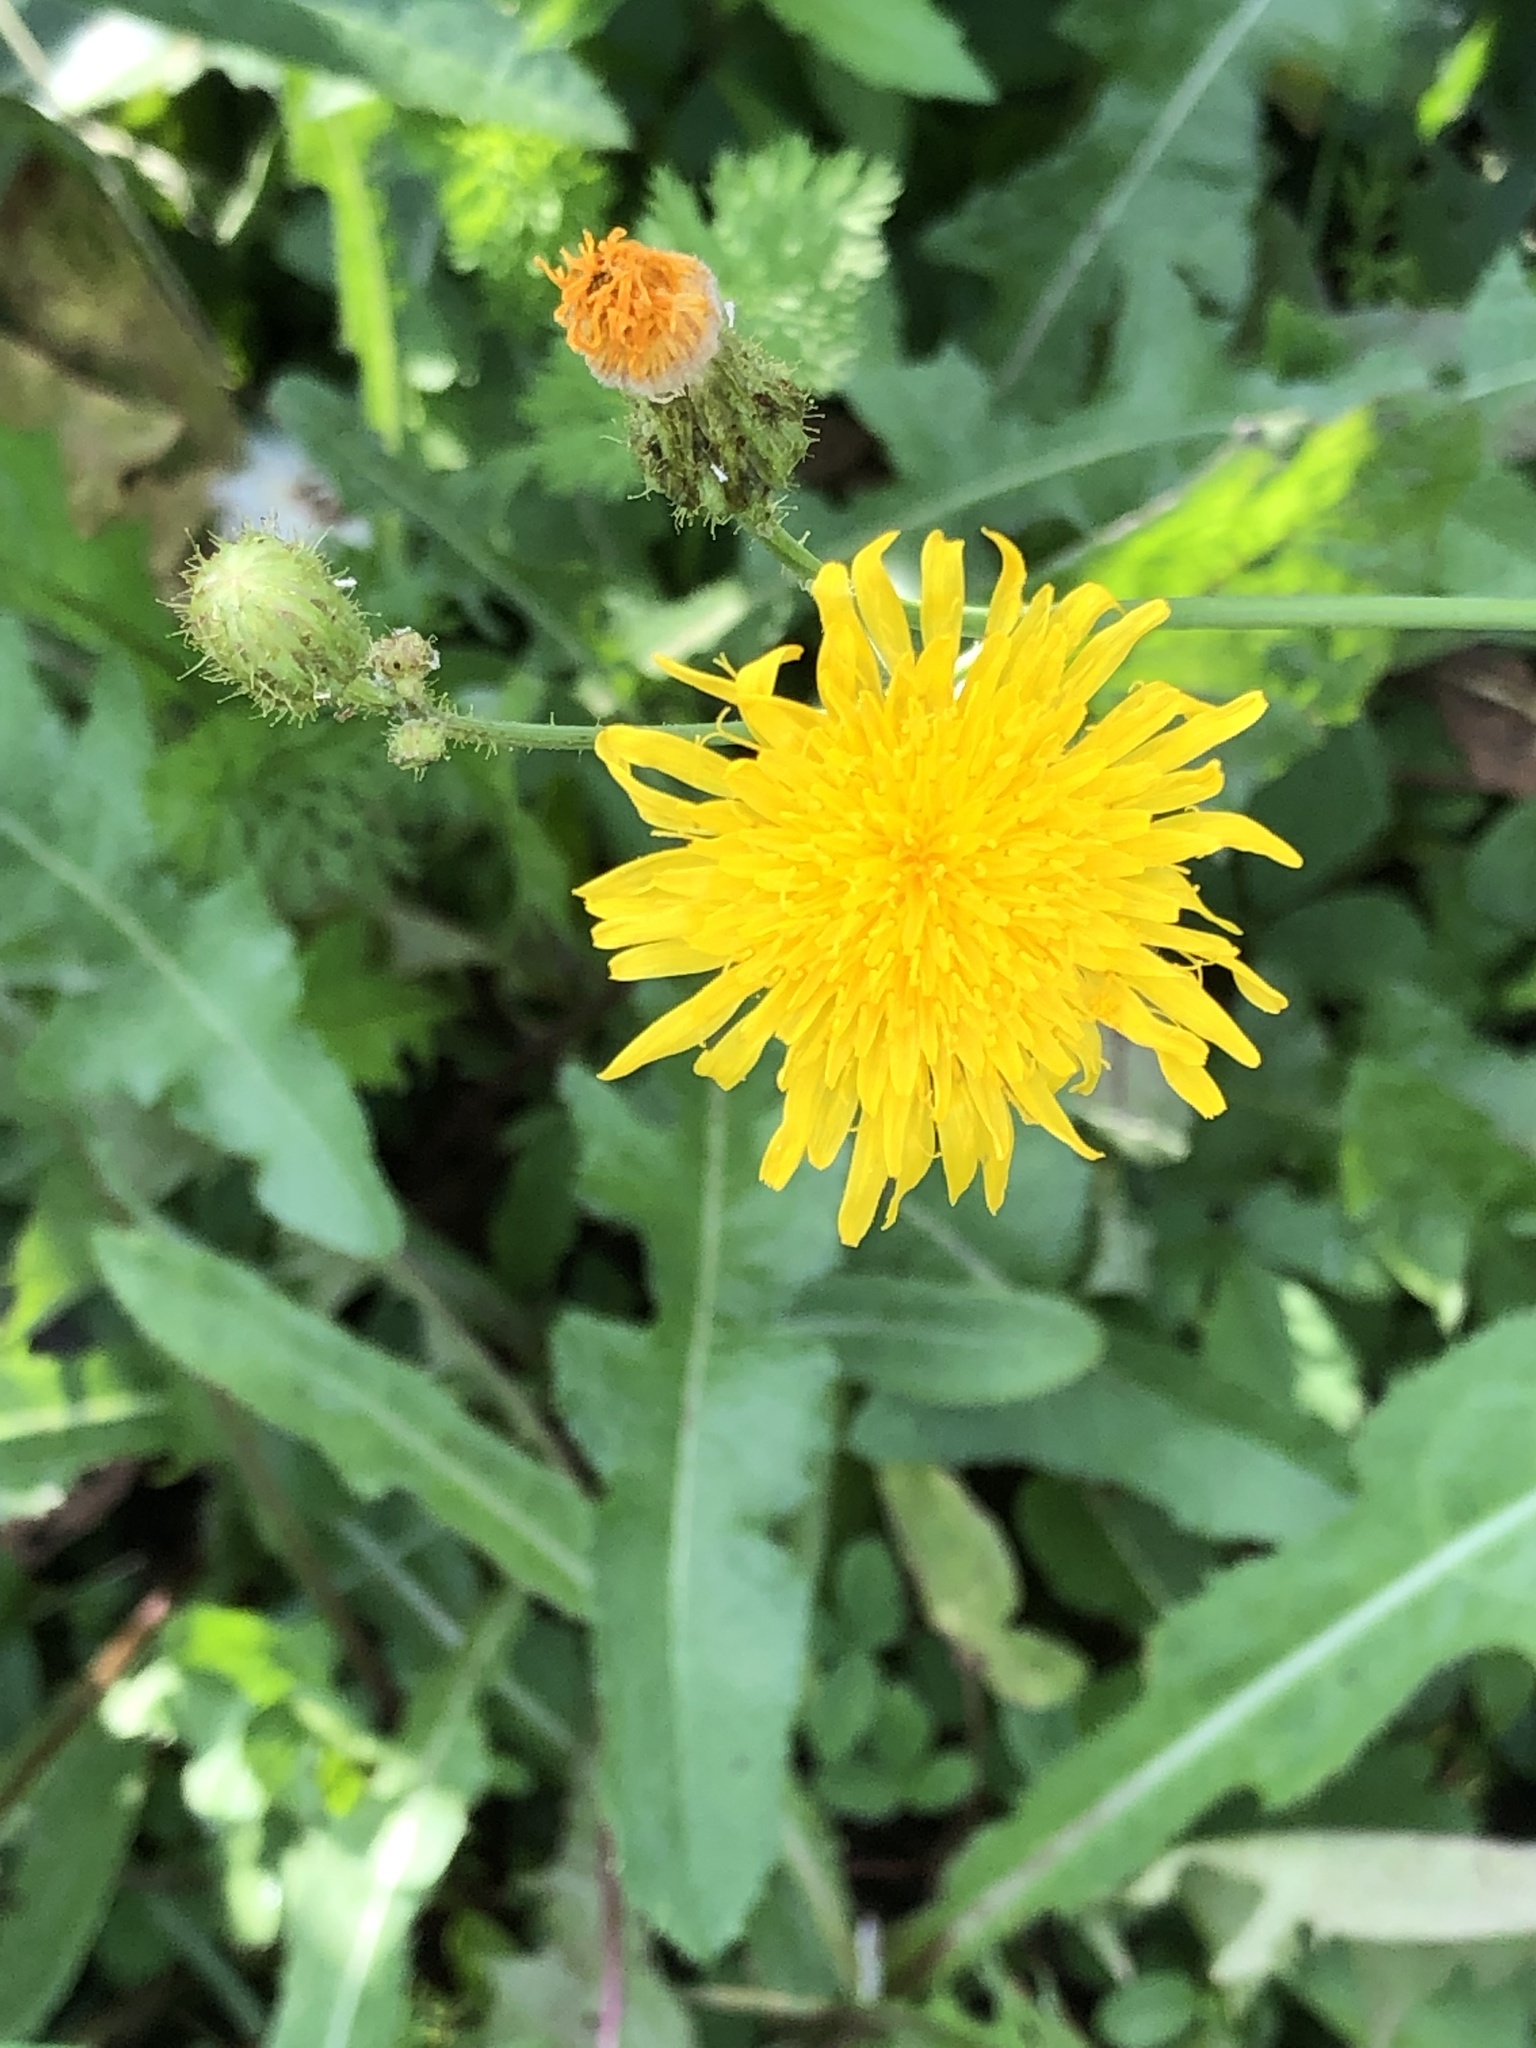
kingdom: Plantae
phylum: Tracheophyta
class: Magnoliopsida
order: Asterales
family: Asteraceae
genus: Sonchus
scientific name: Sonchus arvensis
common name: Perennial sow-thistle
